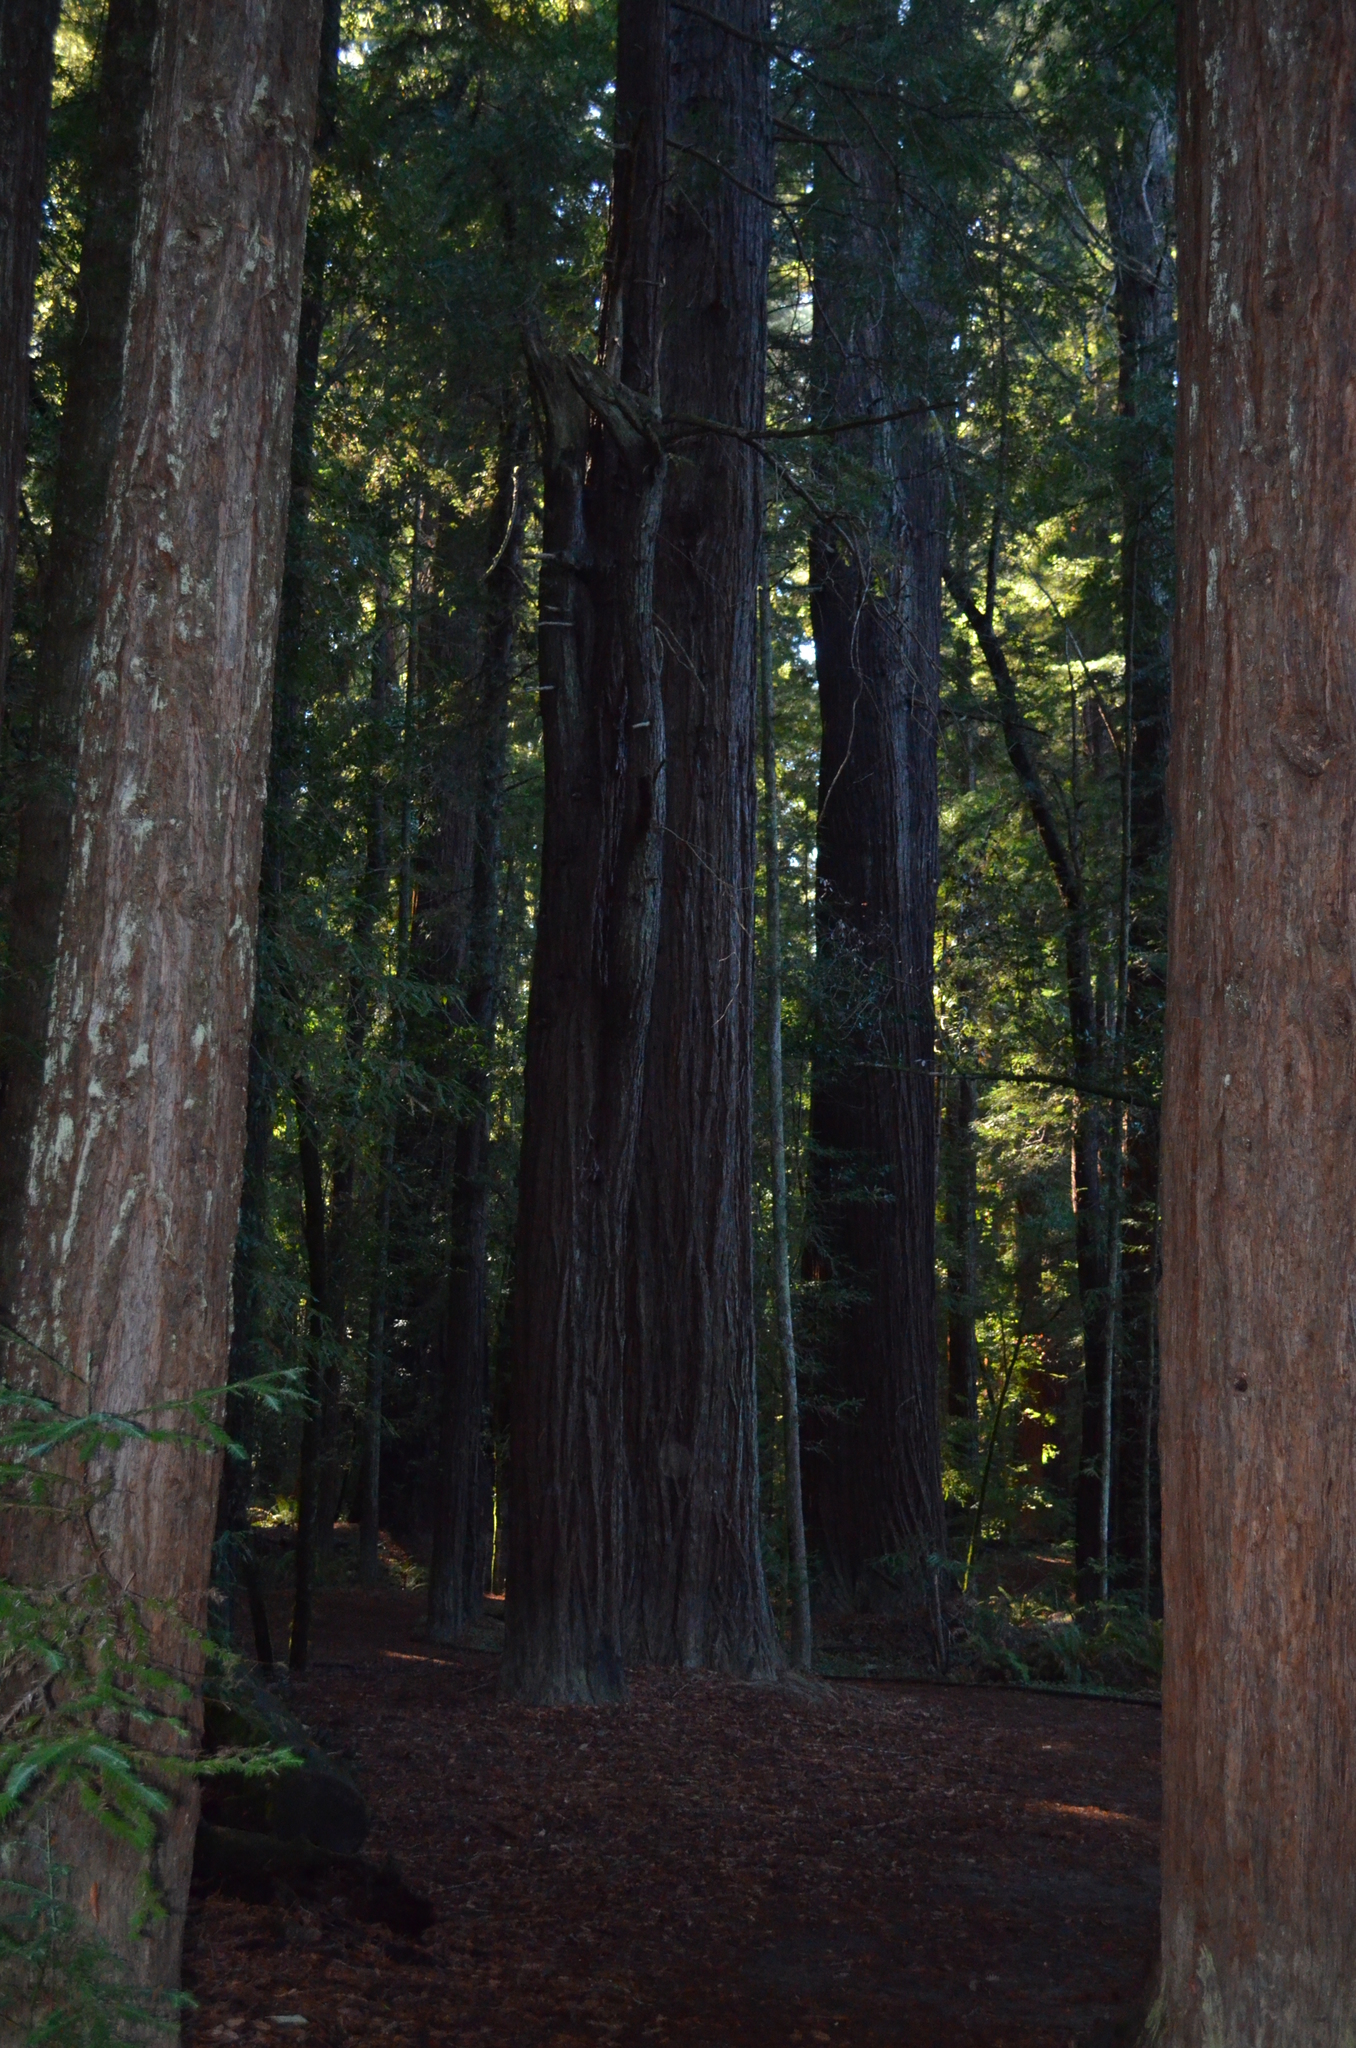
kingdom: Plantae
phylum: Tracheophyta
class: Pinopsida
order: Pinales
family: Cupressaceae
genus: Sequoia
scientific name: Sequoia sempervirens
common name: Coast redwood
